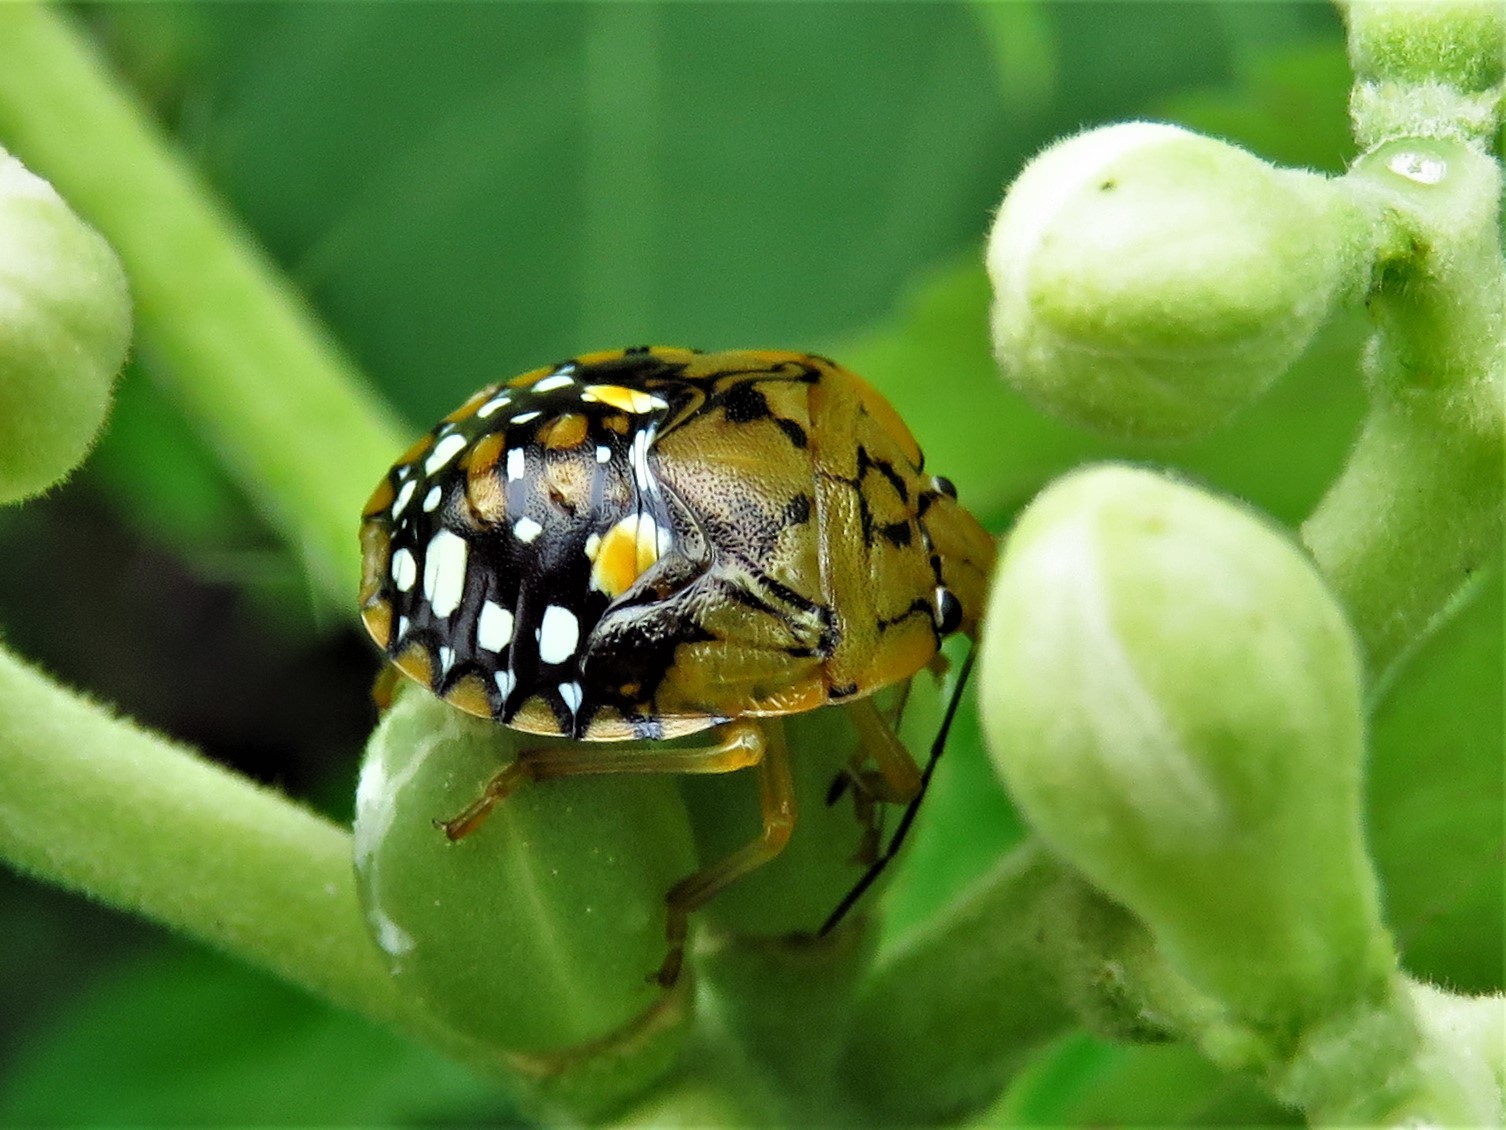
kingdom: Animalia
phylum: Arthropoda
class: Insecta
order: Hemiptera
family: Pentatomidae
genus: Acrosternum
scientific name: Acrosternum marginatum
